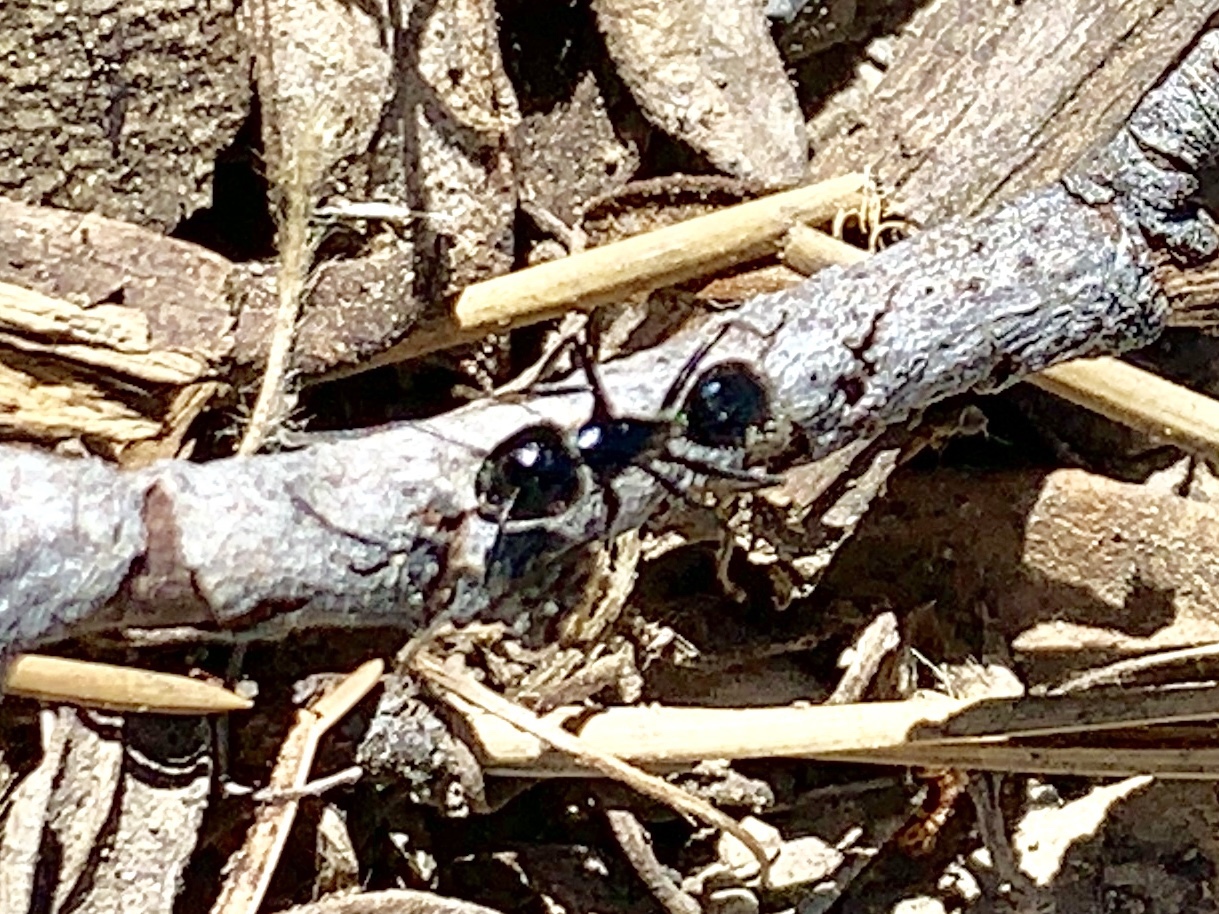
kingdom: Animalia
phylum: Arthropoda
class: Insecta
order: Hymenoptera
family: Formicidae
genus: Camponotus
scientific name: Camponotus
